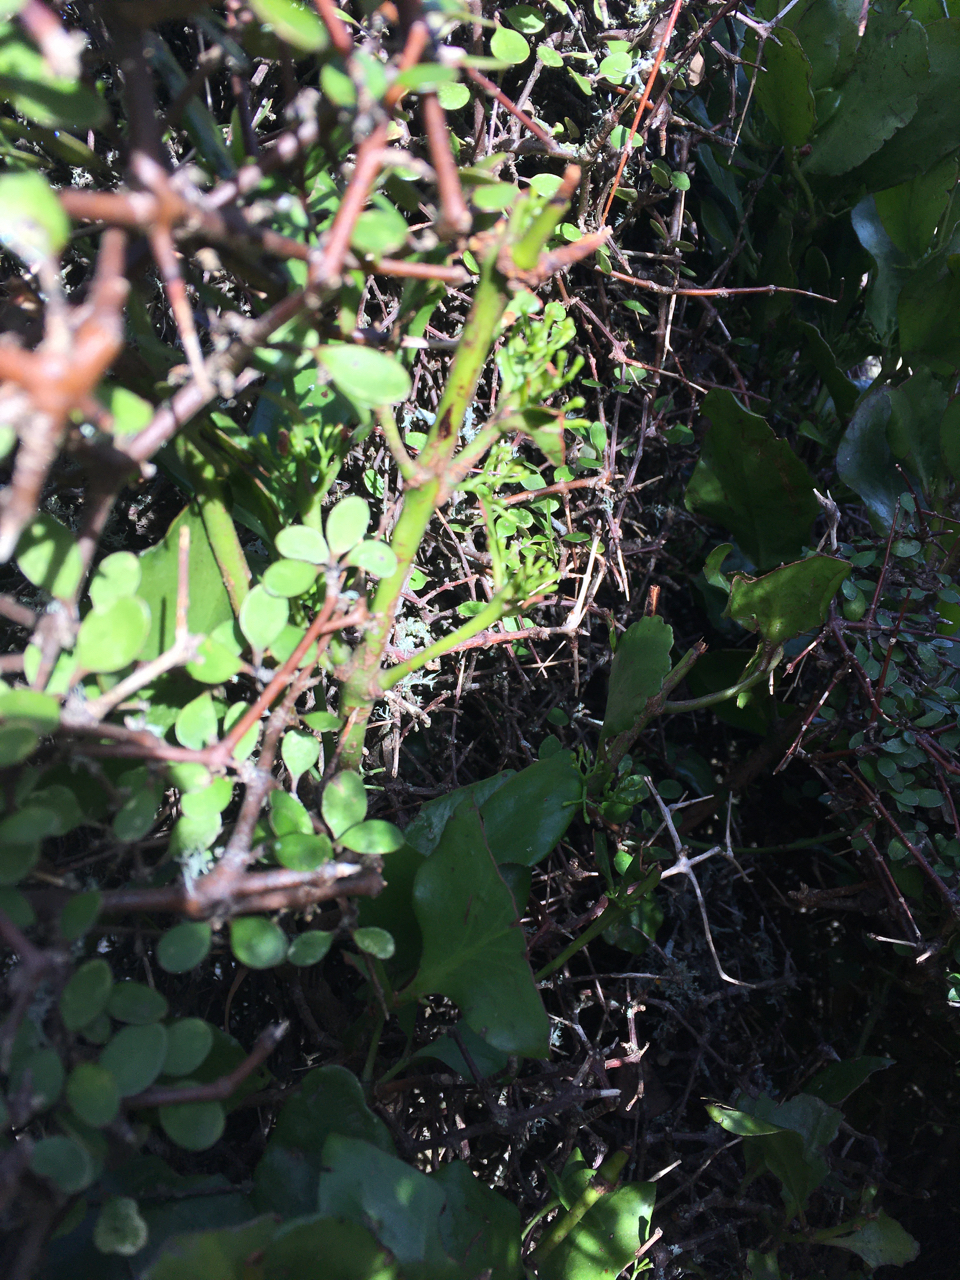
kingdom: Plantae
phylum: Tracheophyta
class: Magnoliopsida
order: Santalales
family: Loranthaceae
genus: Ileostylus
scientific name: Ileostylus micranthus
